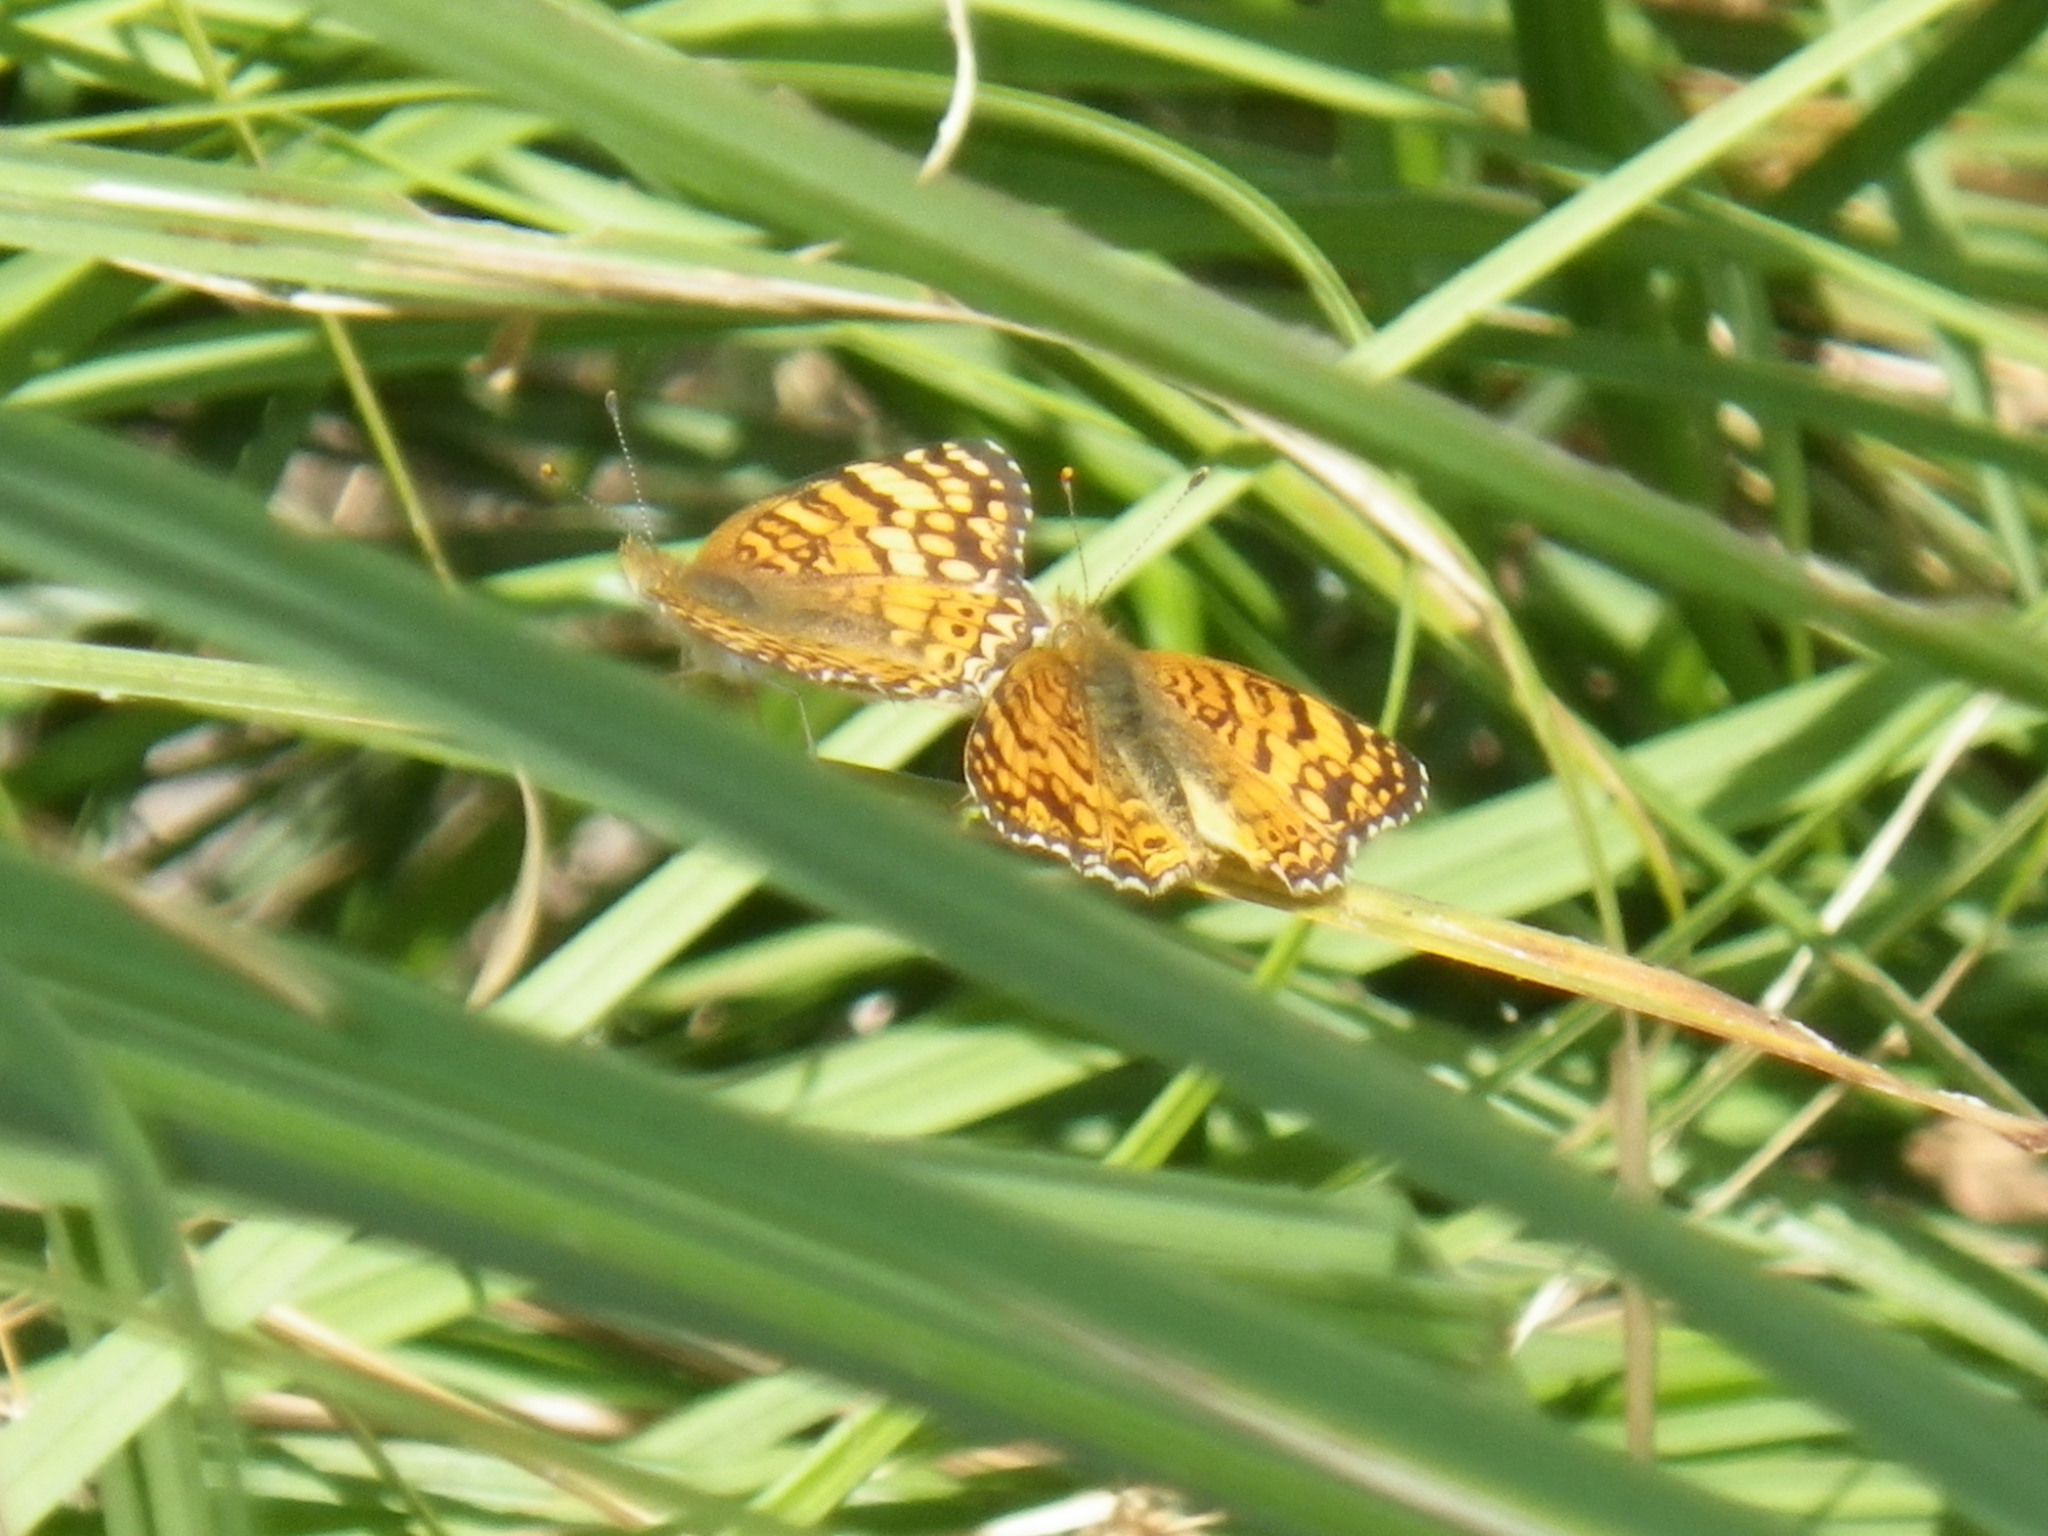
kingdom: Animalia
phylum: Arthropoda
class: Insecta
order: Lepidoptera
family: Nymphalidae
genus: Eresia
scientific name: Eresia aveyrona
